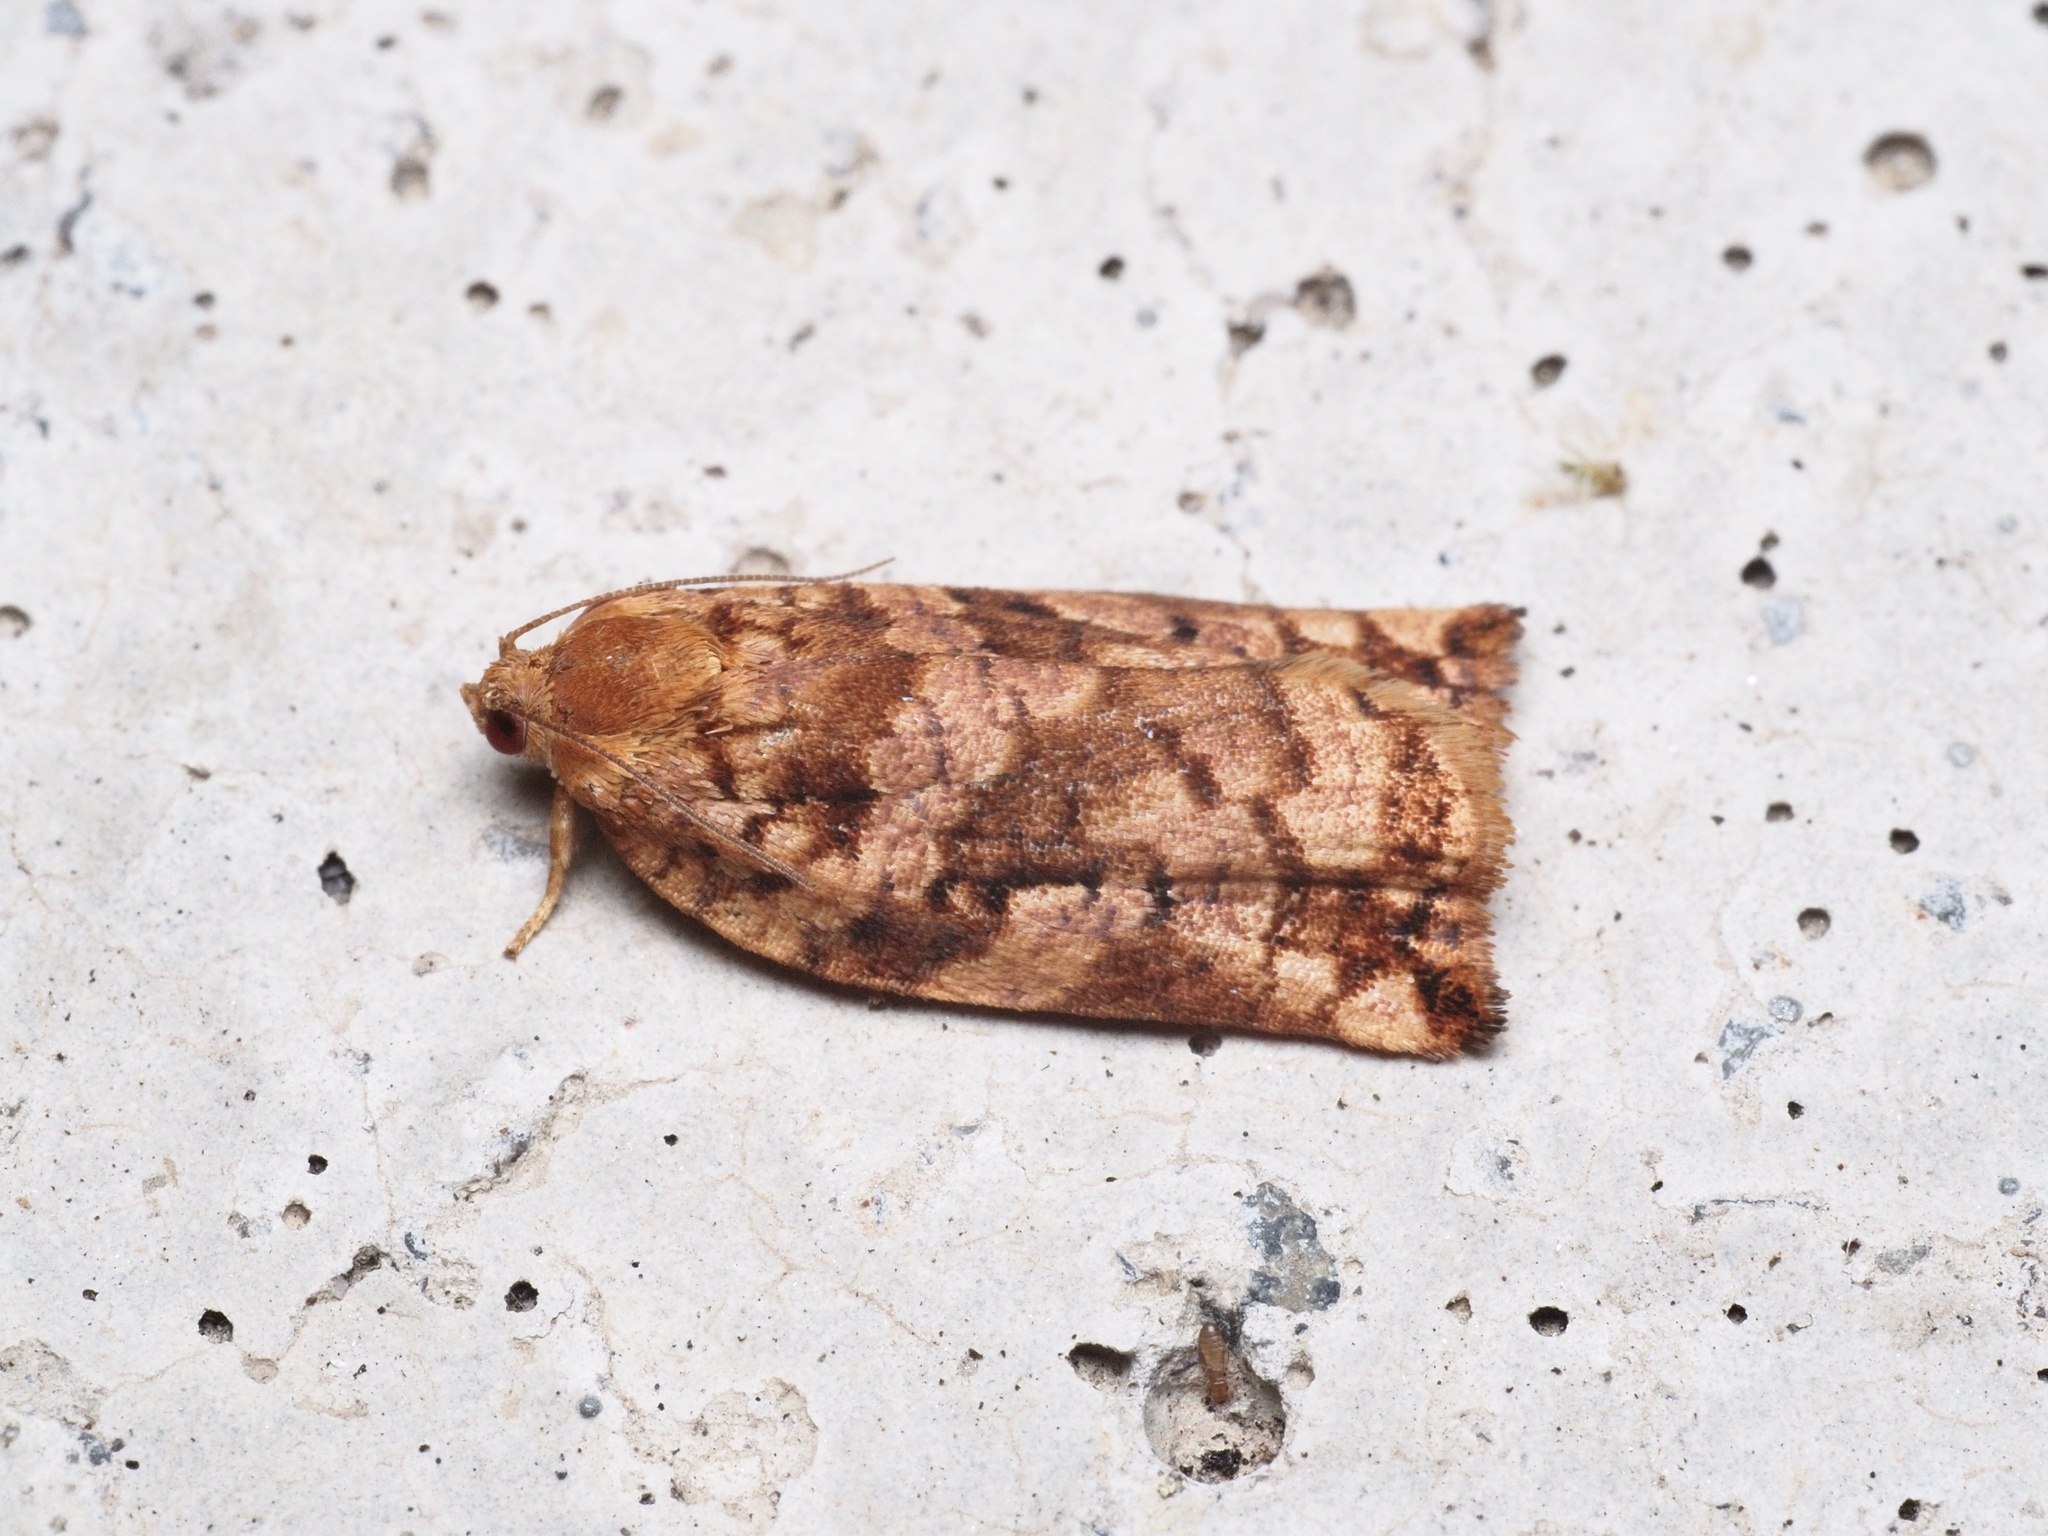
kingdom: Animalia
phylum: Arthropoda
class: Insecta
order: Lepidoptera
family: Tortricidae
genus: Archips
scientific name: Archips oporana
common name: Sprice tortrix moth
